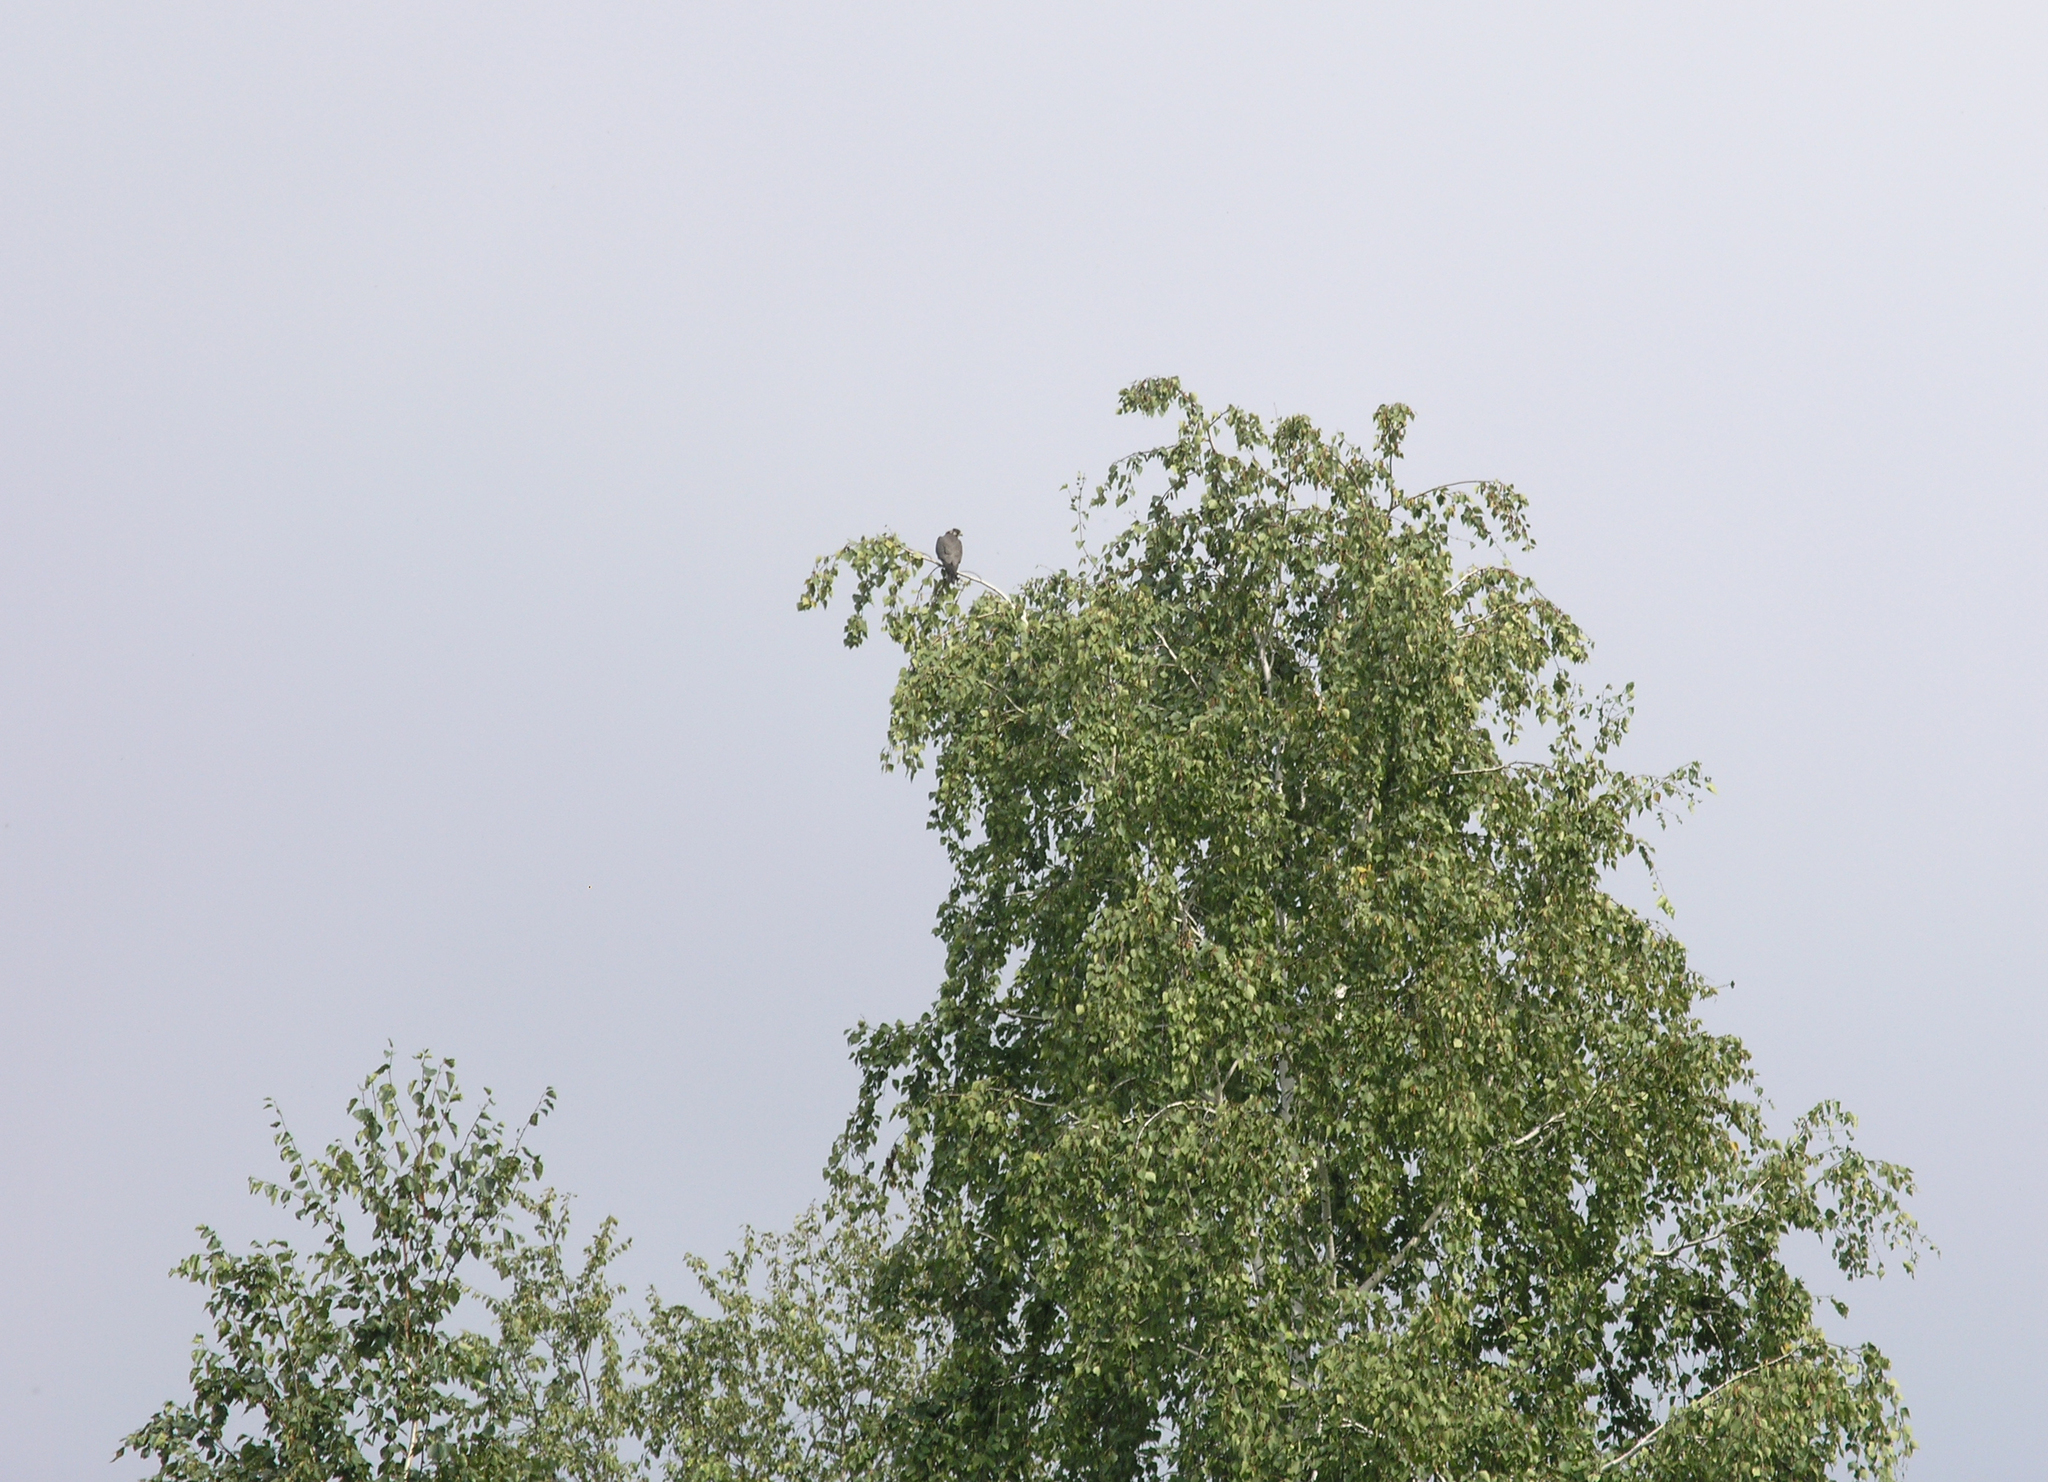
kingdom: Plantae
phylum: Tracheophyta
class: Magnoliopsida
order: Fagales
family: Betulaceae
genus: Betula
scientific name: Betula pendula
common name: Silver birch
